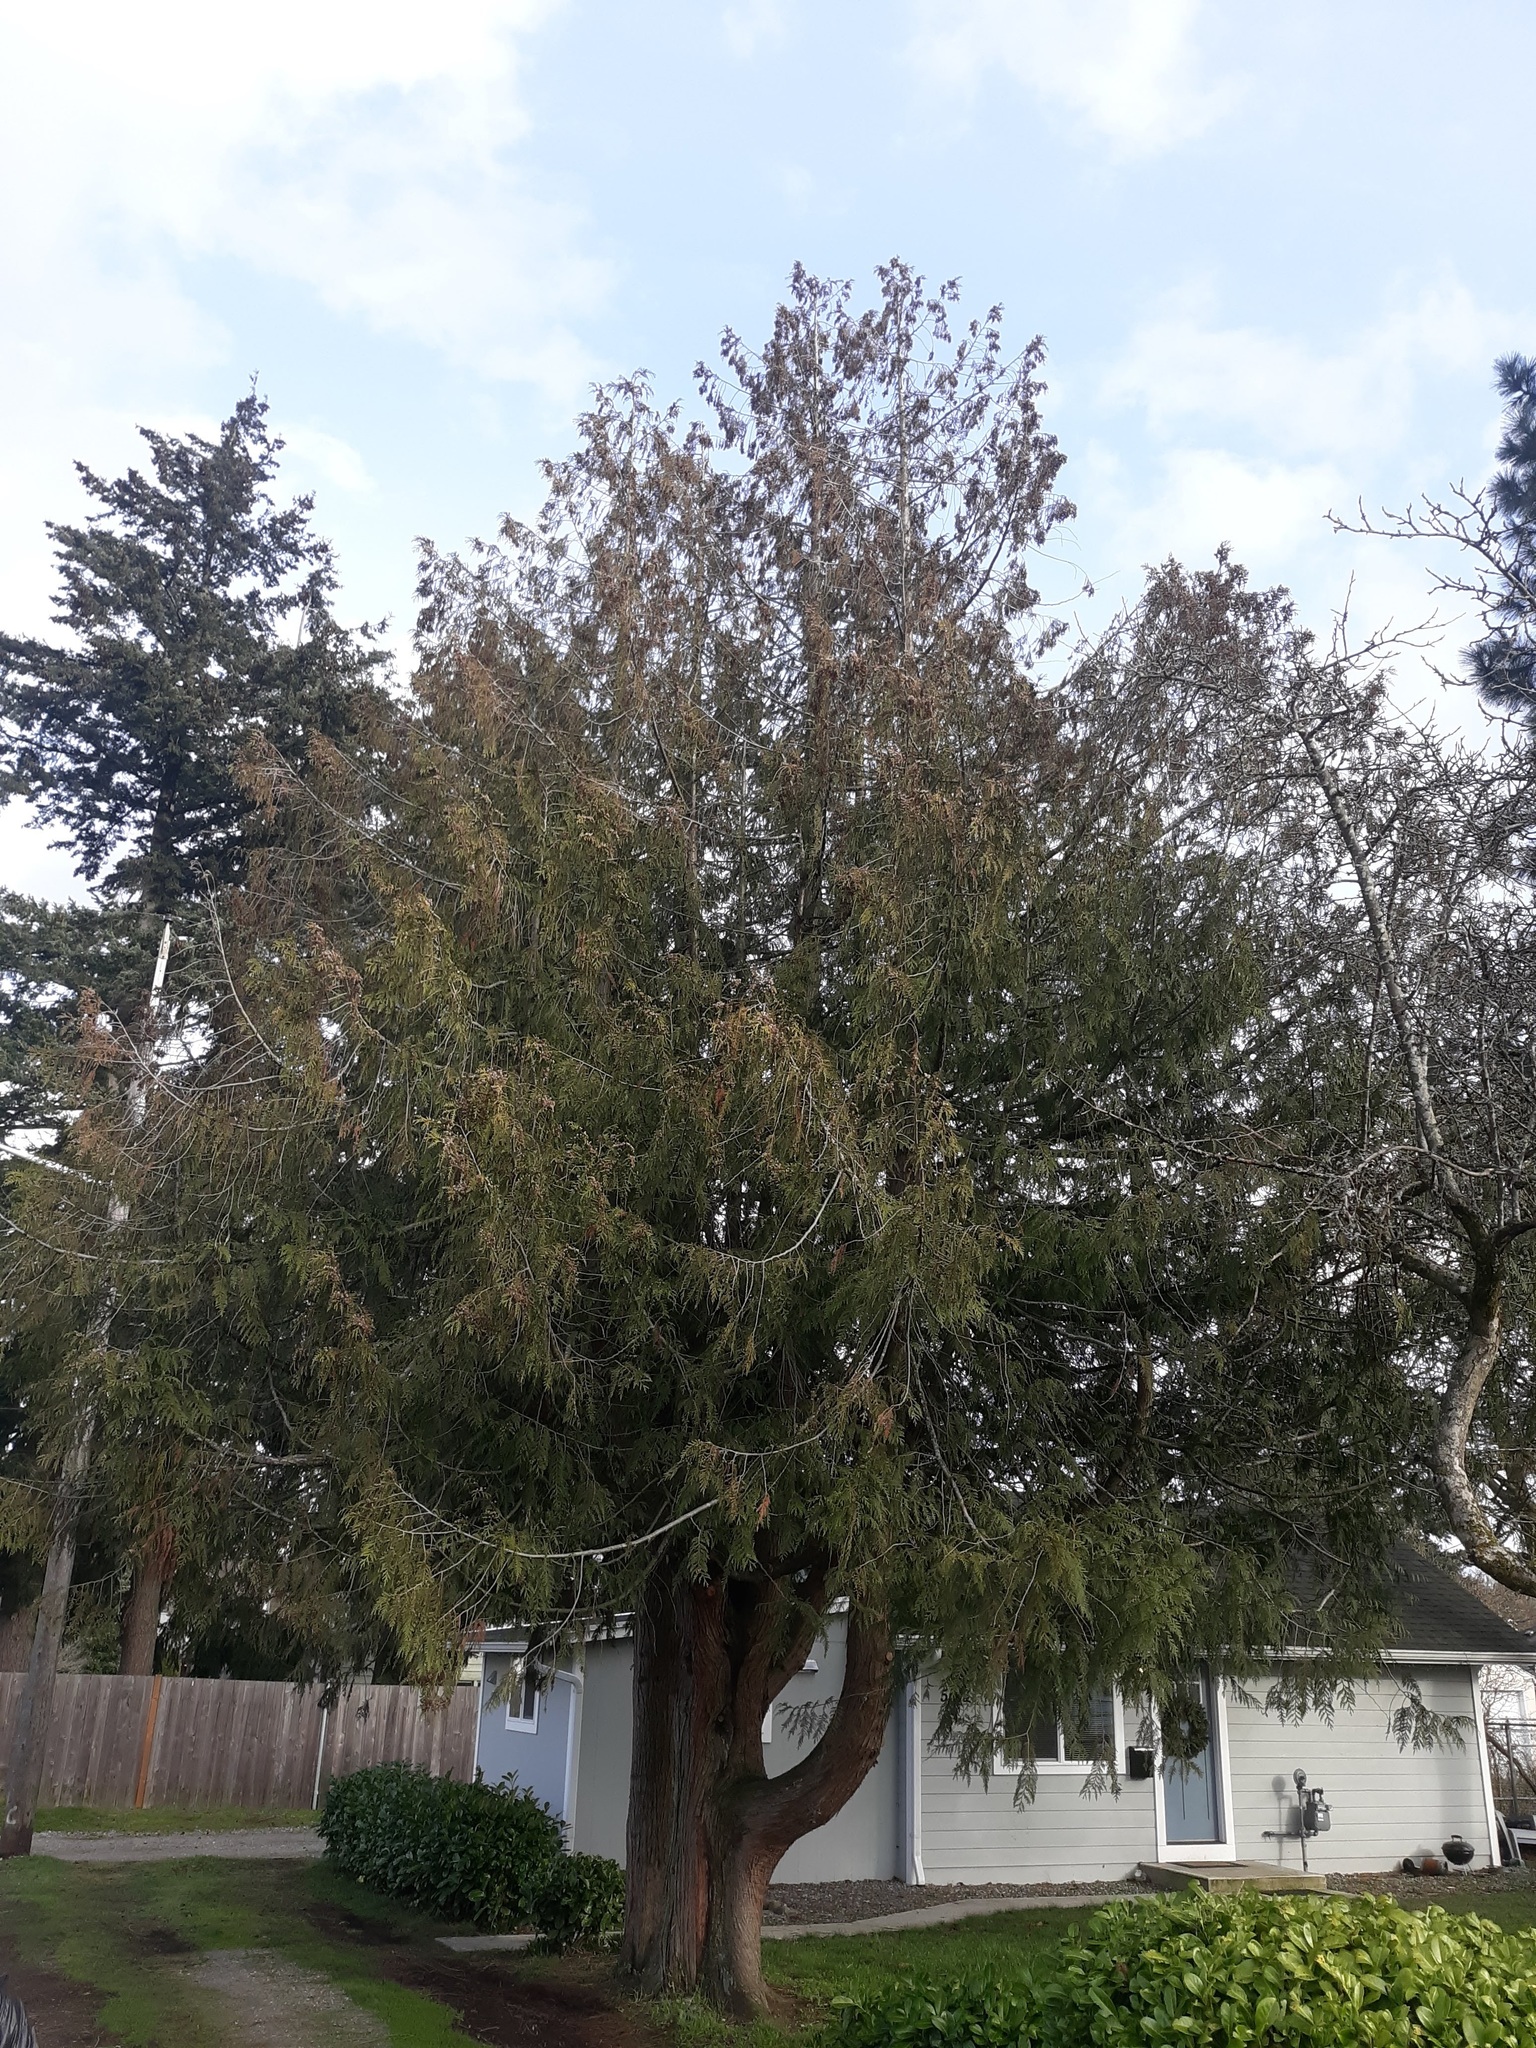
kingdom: Plantae
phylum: Tracheophyta
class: Pinopsida
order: Pinales
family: Cupressaceae
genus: Thuja
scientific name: Thuja plicata
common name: Western red-cedar
